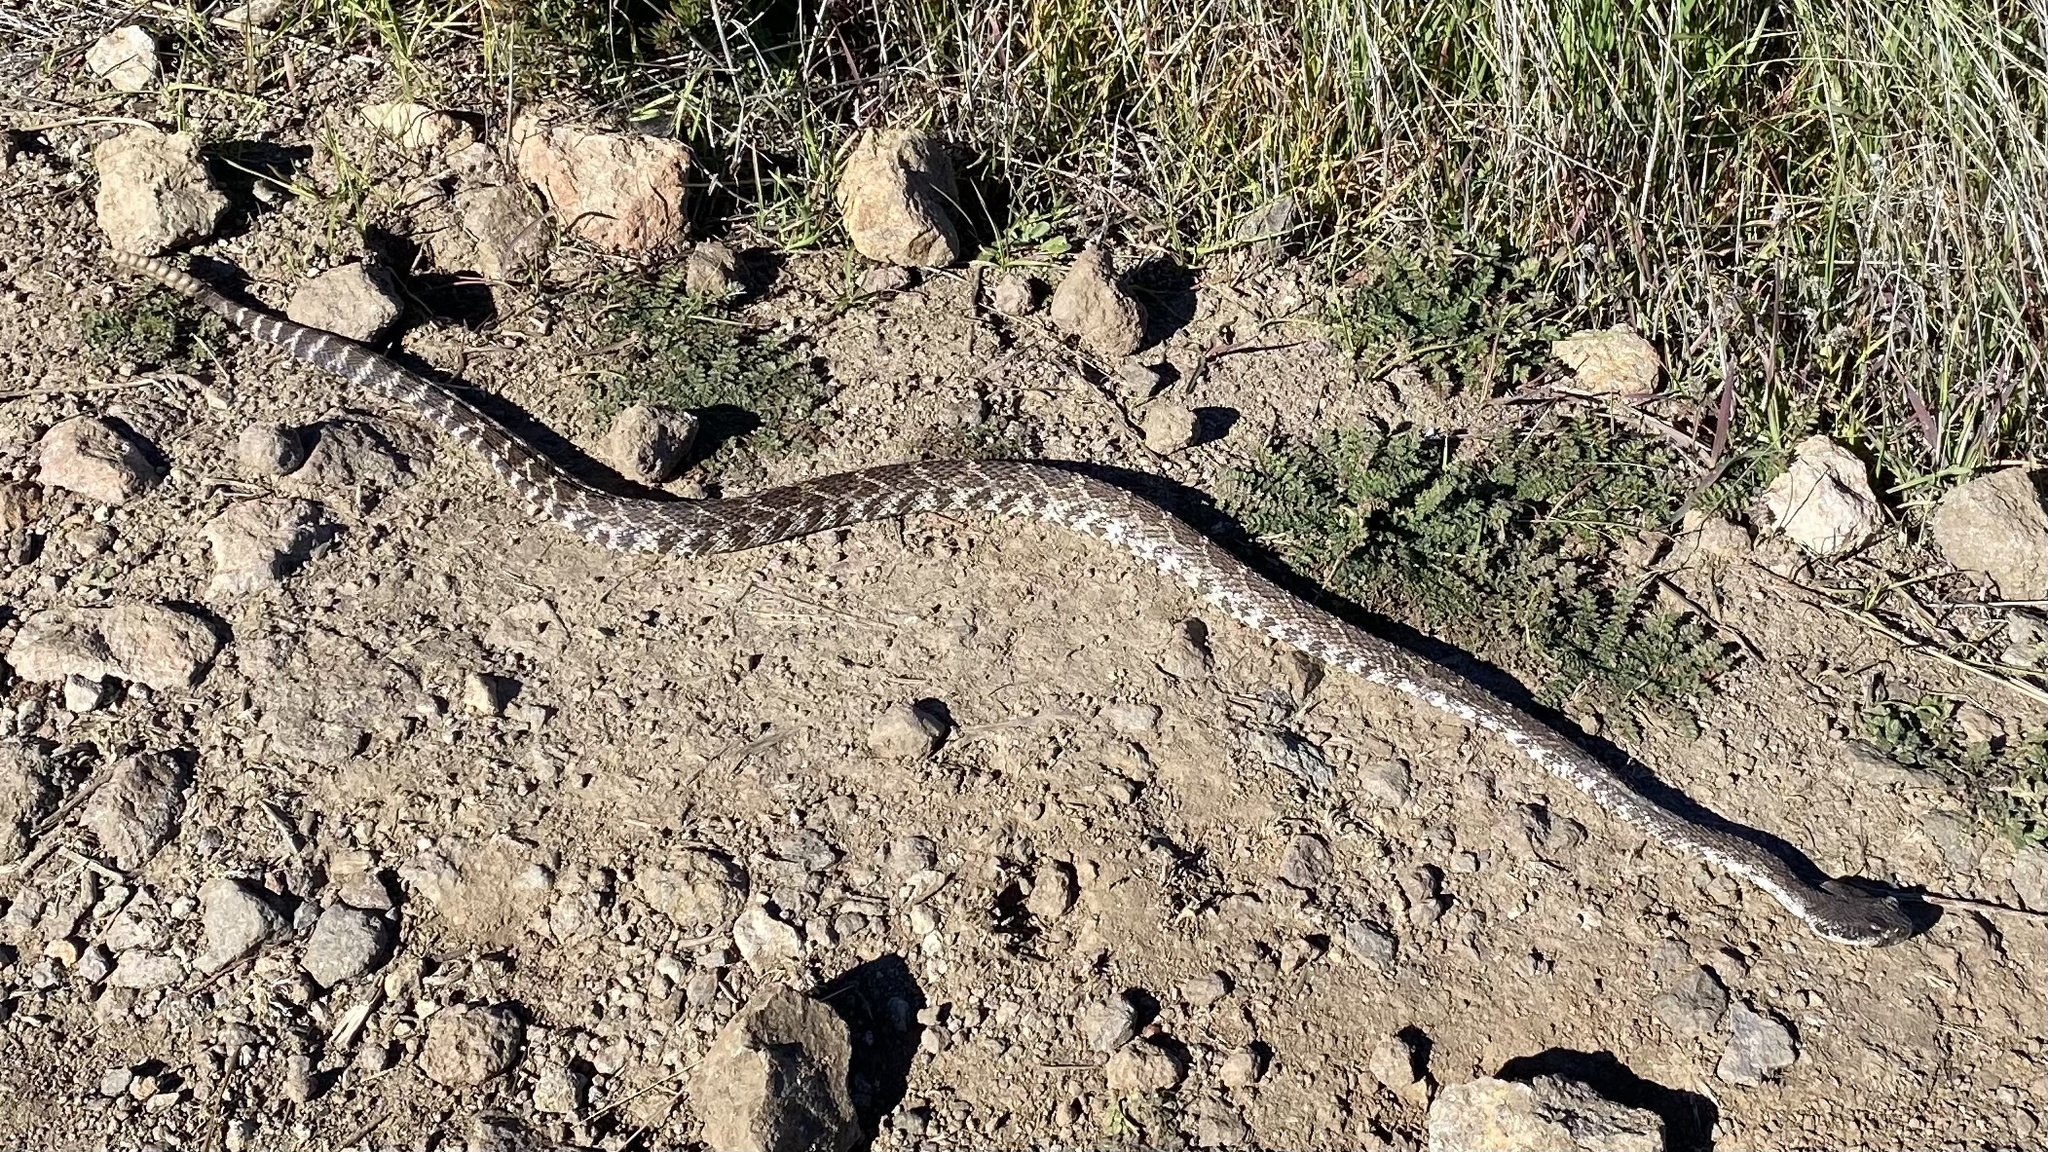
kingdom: Animalia
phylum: Chordata
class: Squamata
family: Viperidae
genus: Crotalus
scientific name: Crotalus oreganus
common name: Abyssus
